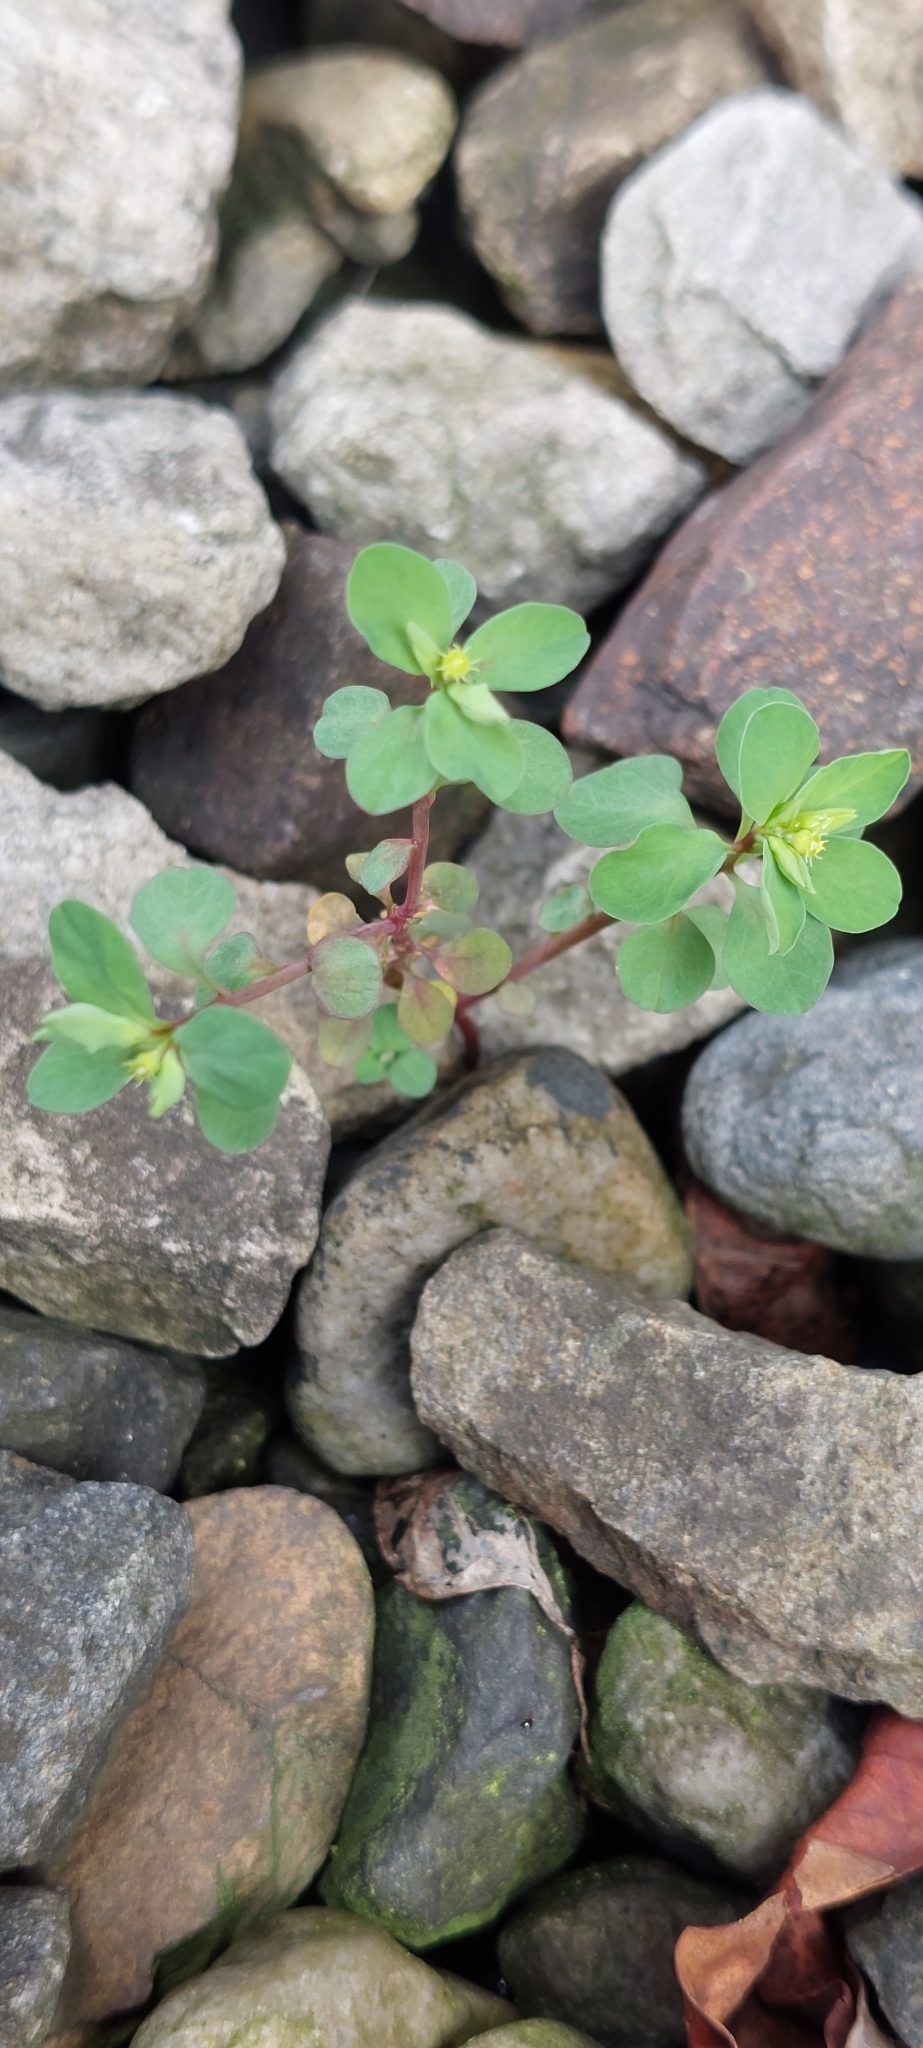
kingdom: Plantae
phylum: Tracheophyta
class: Magnoliopsida
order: Malpighiales
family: Euphorbiaceae
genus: Euphorbia
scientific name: Euphorbia peplus
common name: Petty spurge
